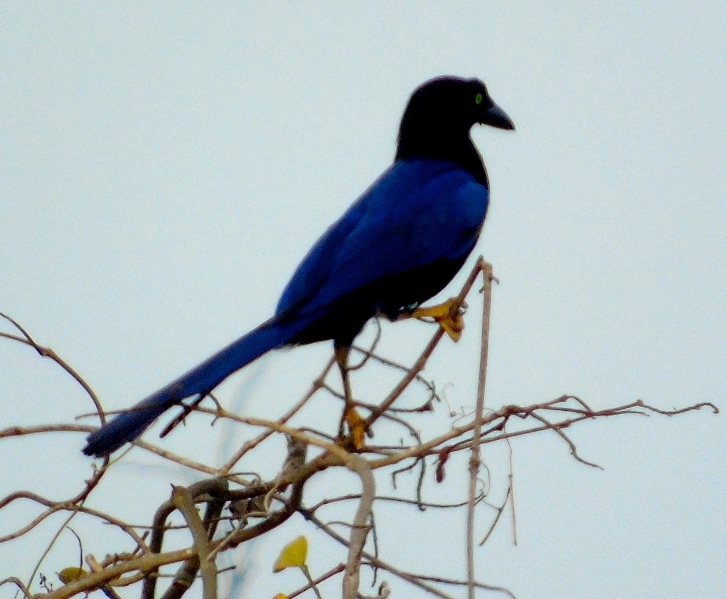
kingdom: Animalia
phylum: Chordata
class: Aves
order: Passeriformes
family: Corvidae
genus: Cyanocorax
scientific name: Cyanocorax beecheii
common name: Purplish-backed jay
